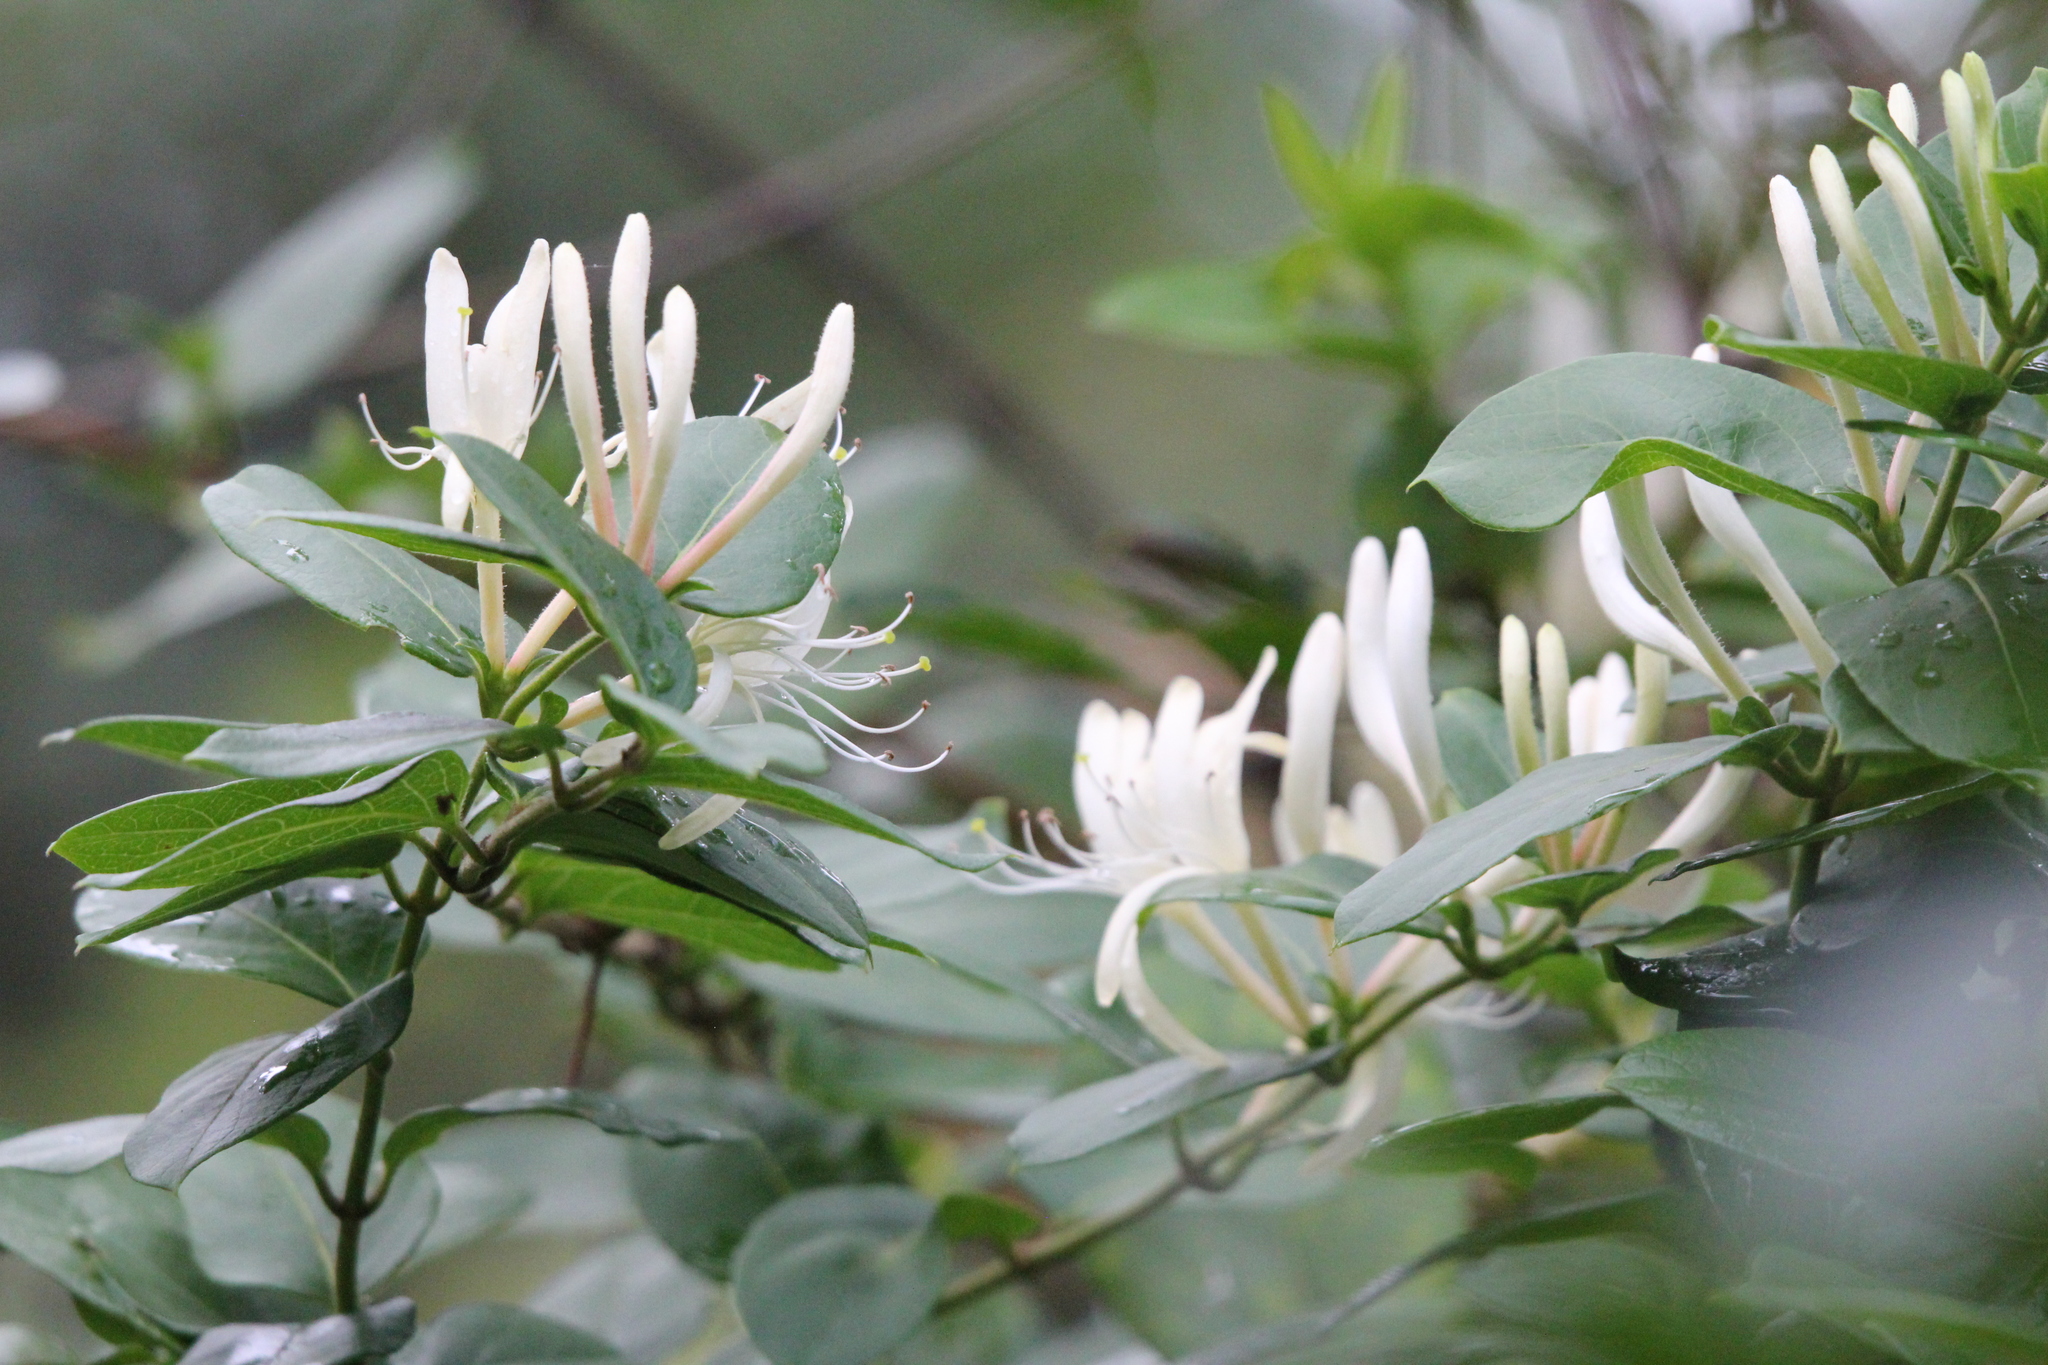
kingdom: Plantae
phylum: Tracheophyta
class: Magnoliopsida
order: Dipsacales
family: Caprifoliaceae
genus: Lonicera
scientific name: Lonicera japonica
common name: Japanese honeysuckle
